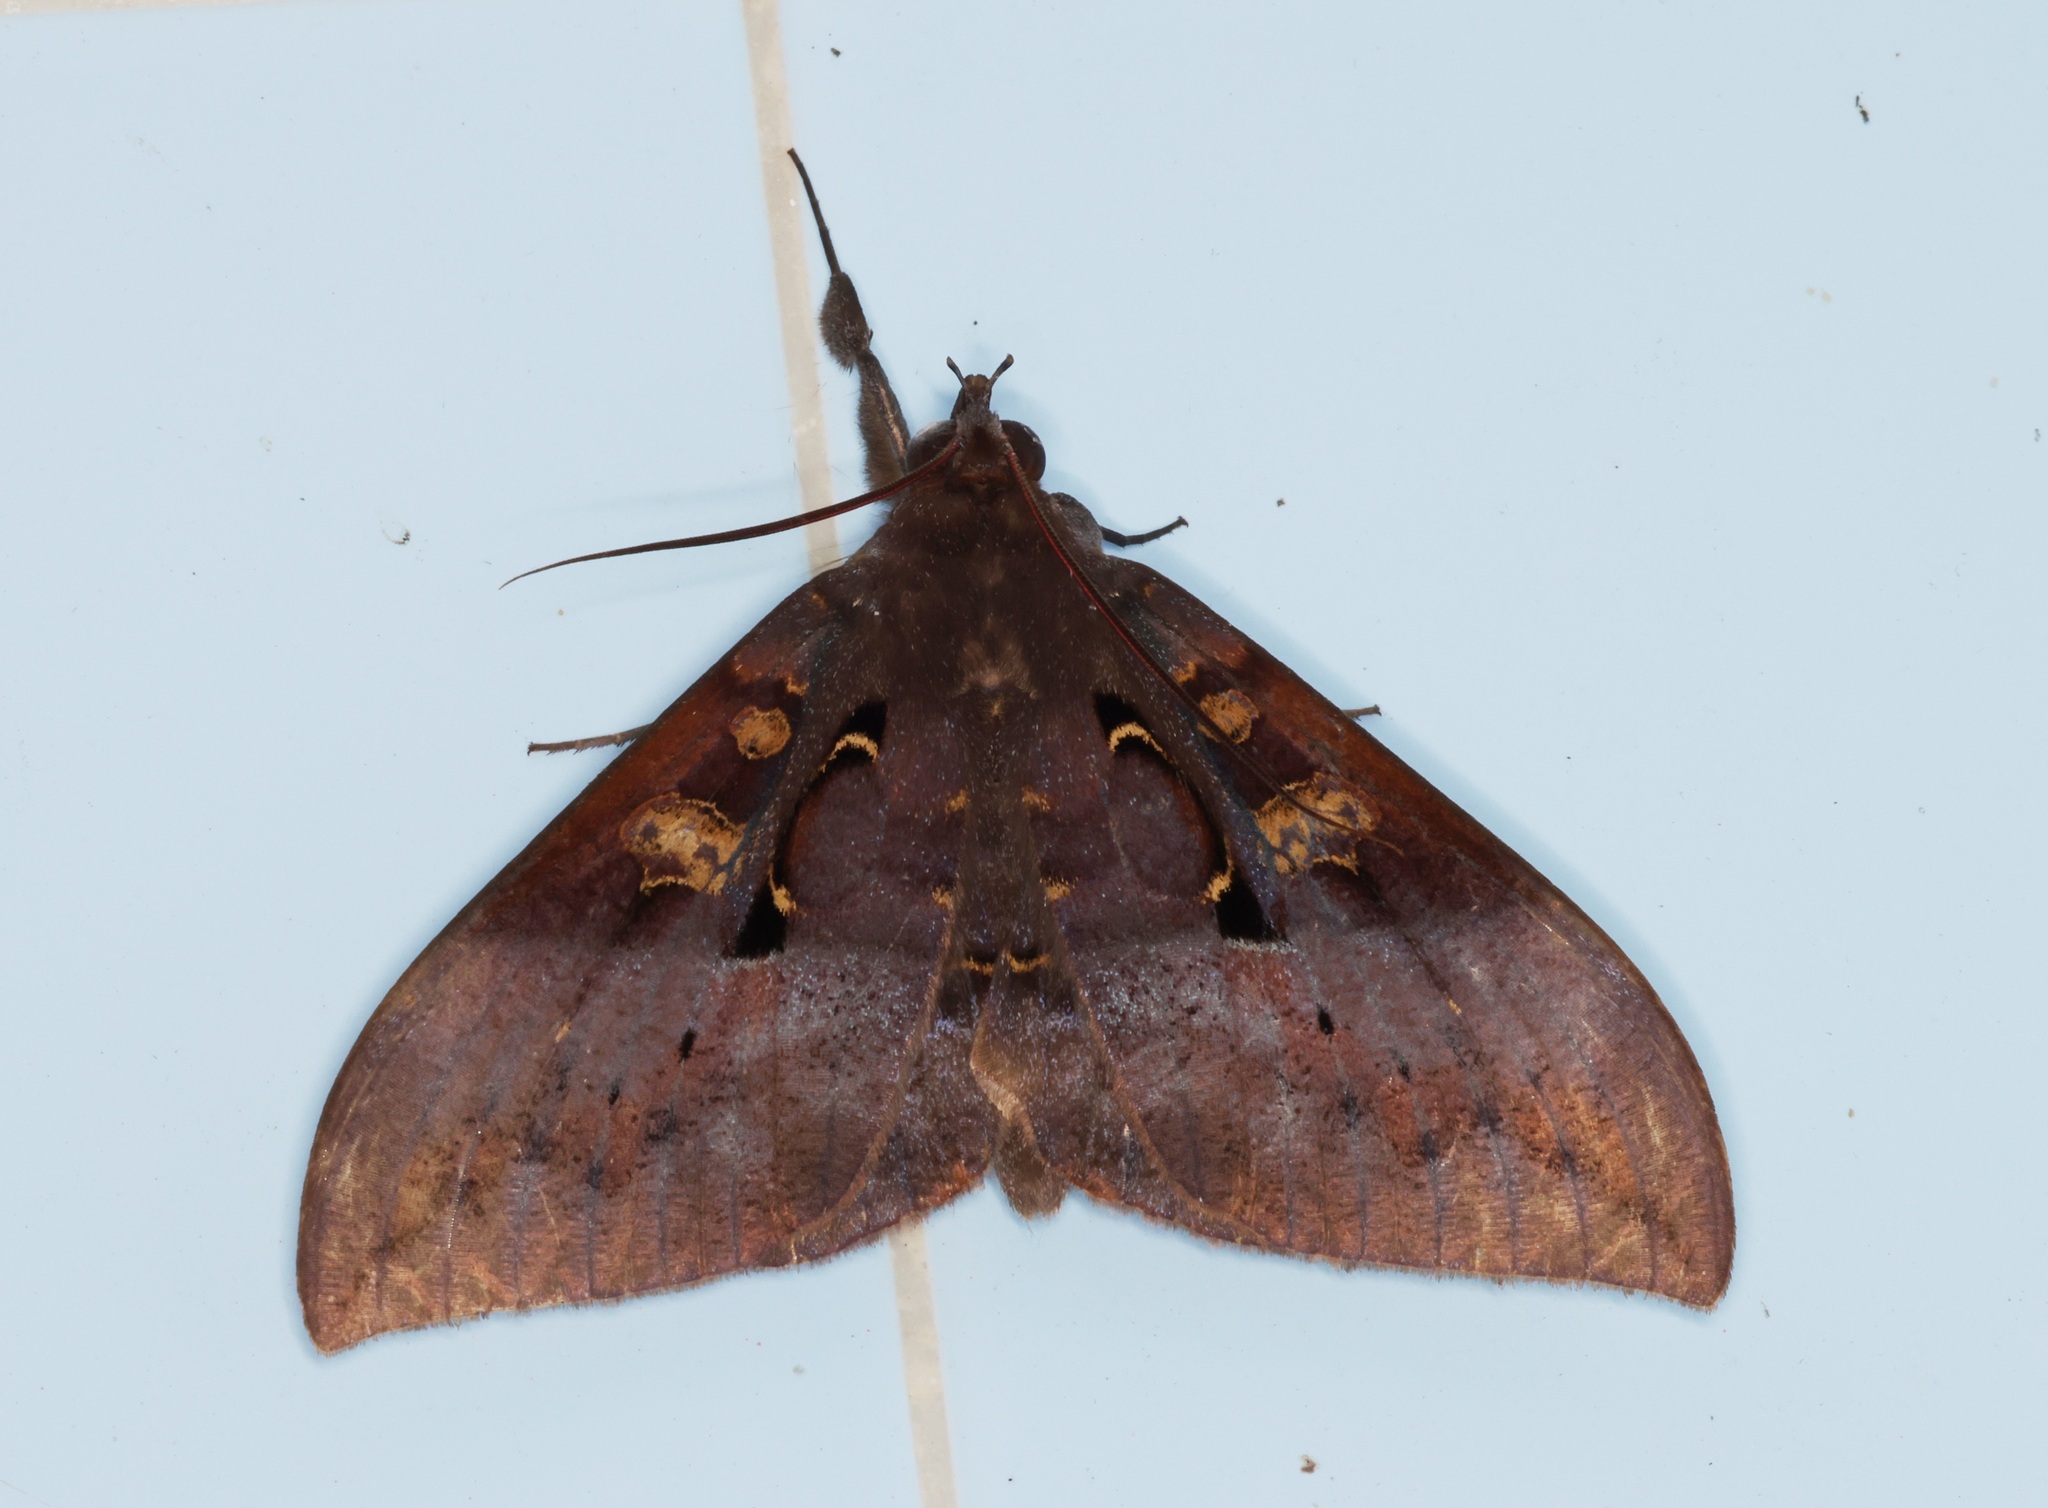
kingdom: Animalia
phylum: Arthropoda
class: Insecta
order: Lepidoptera
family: Erebidae
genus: Ischyja
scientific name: Ischyja manlia
